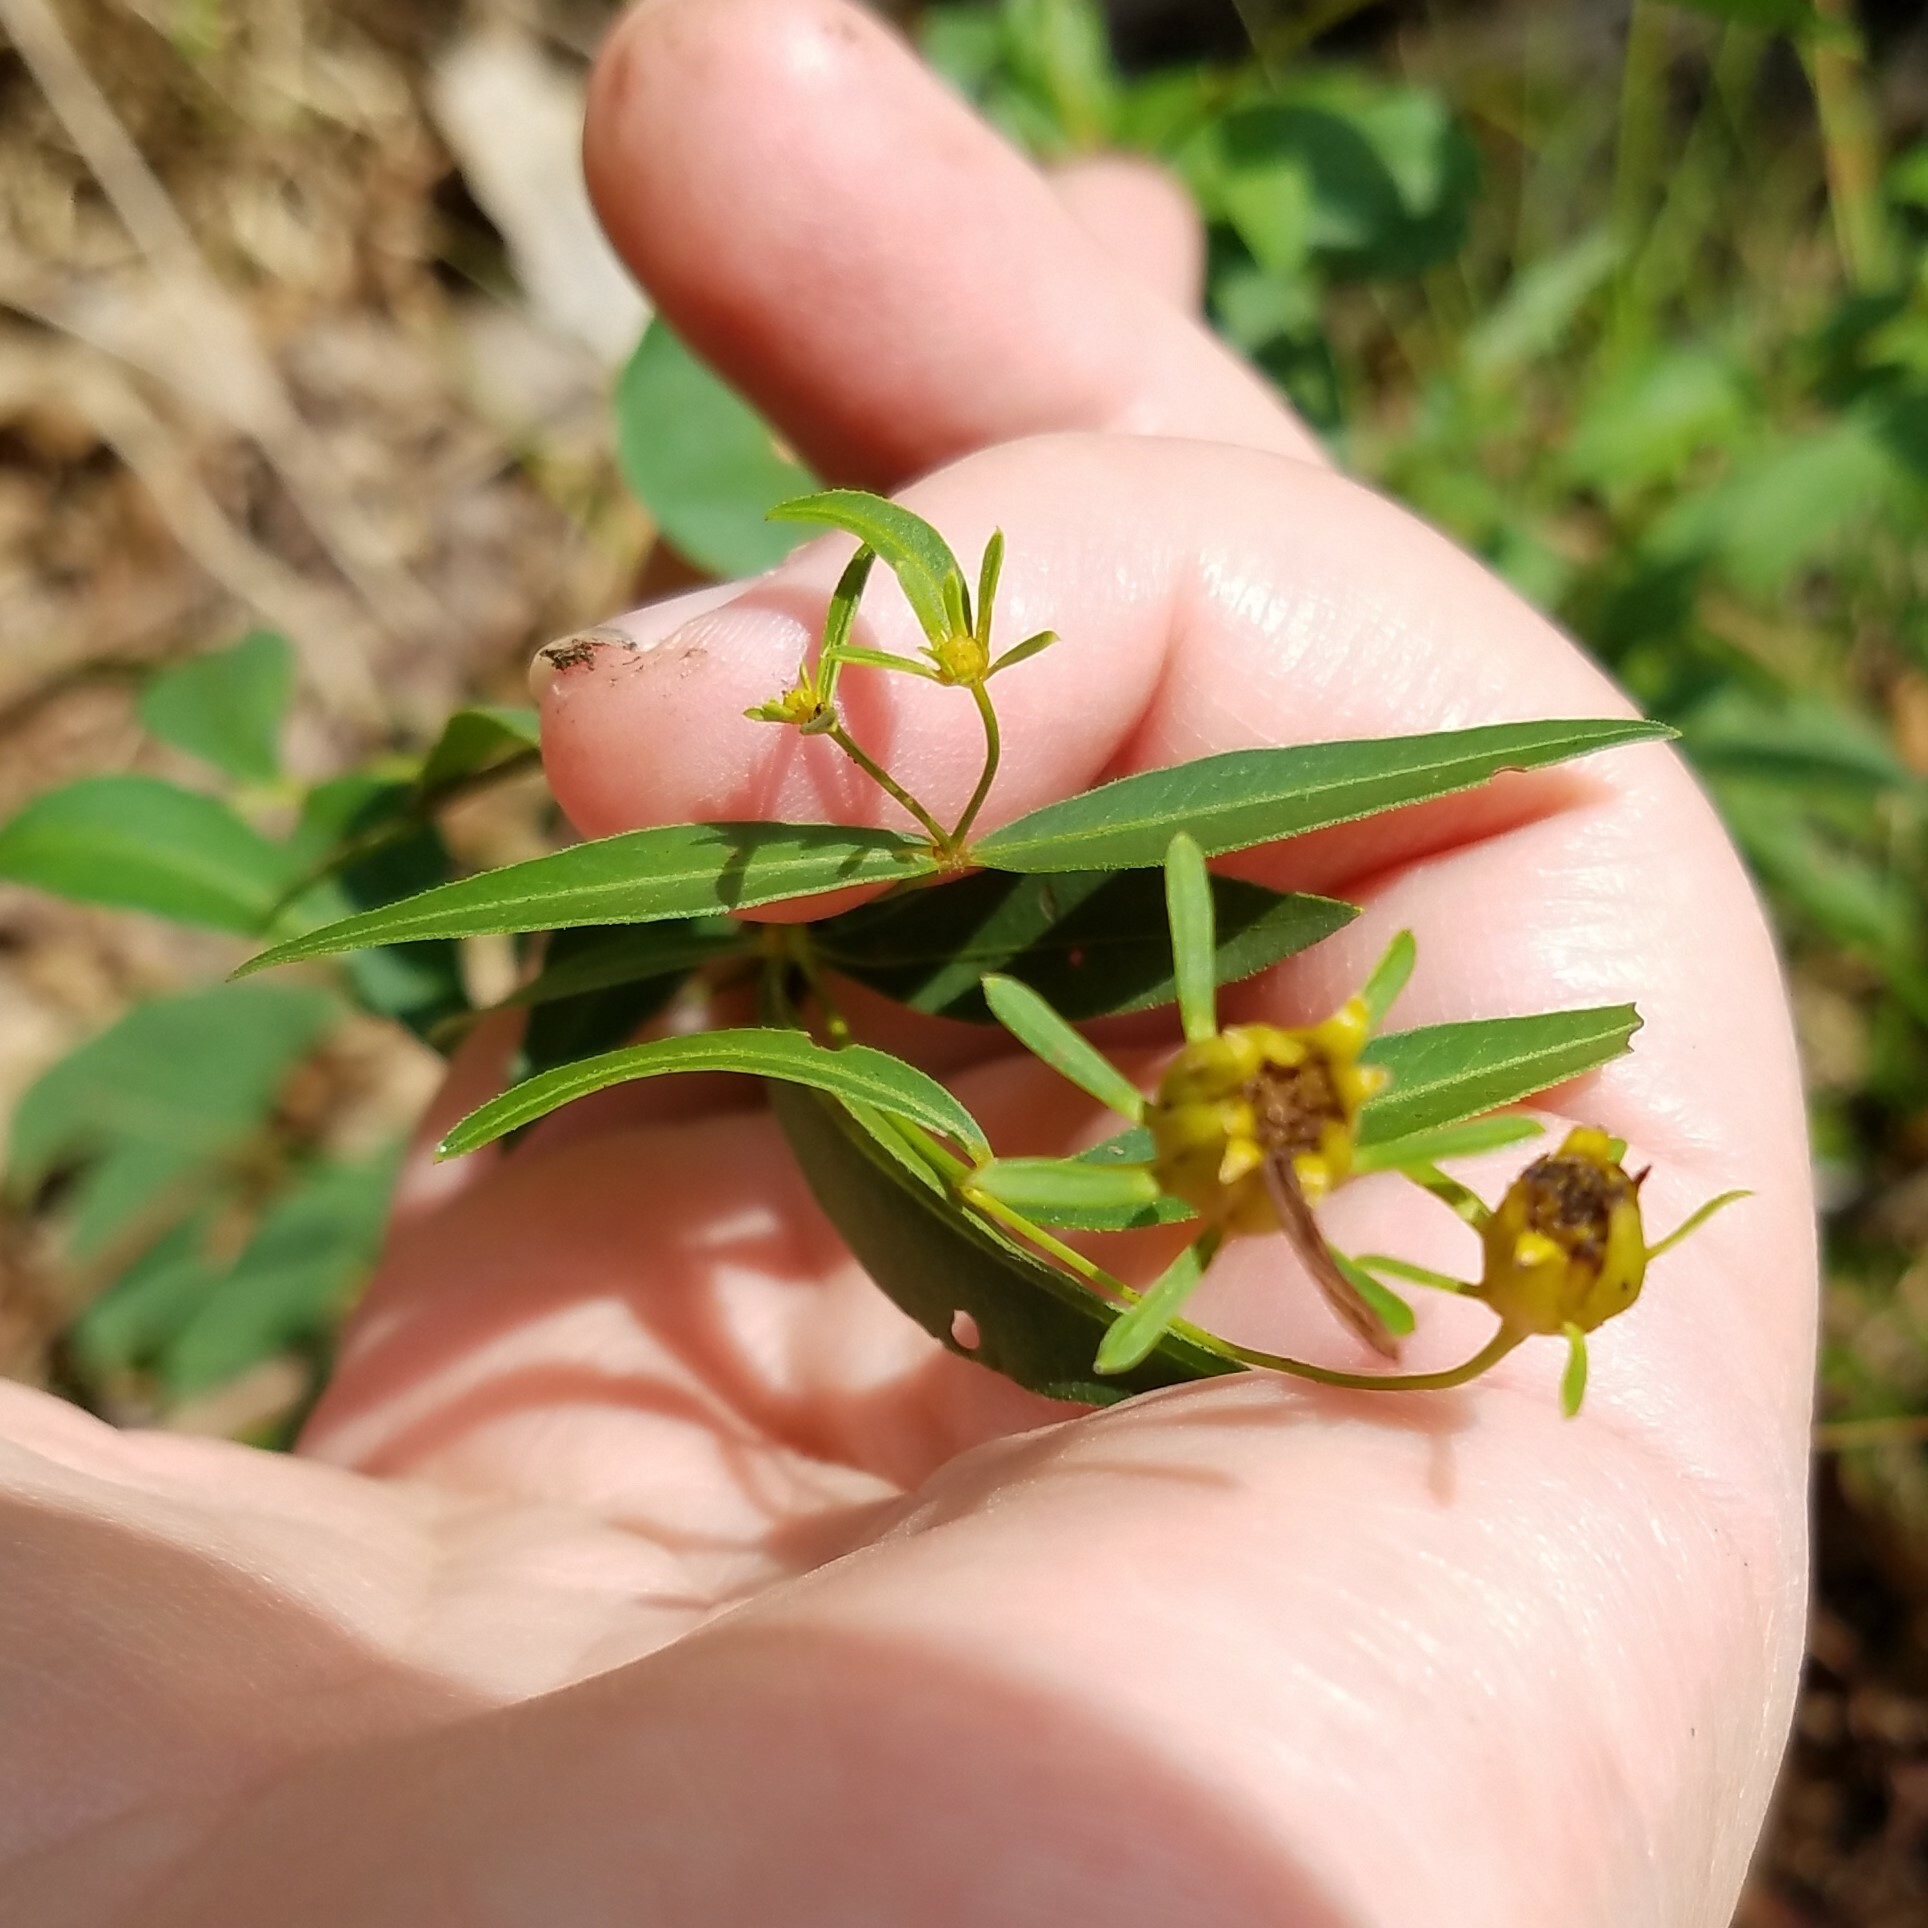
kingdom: Plantae
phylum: Tracheophyta
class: Magnoliopsida
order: Asterales
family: Asteraceae
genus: Coreopsis
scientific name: Coreopsis major
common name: Forest tickseed
